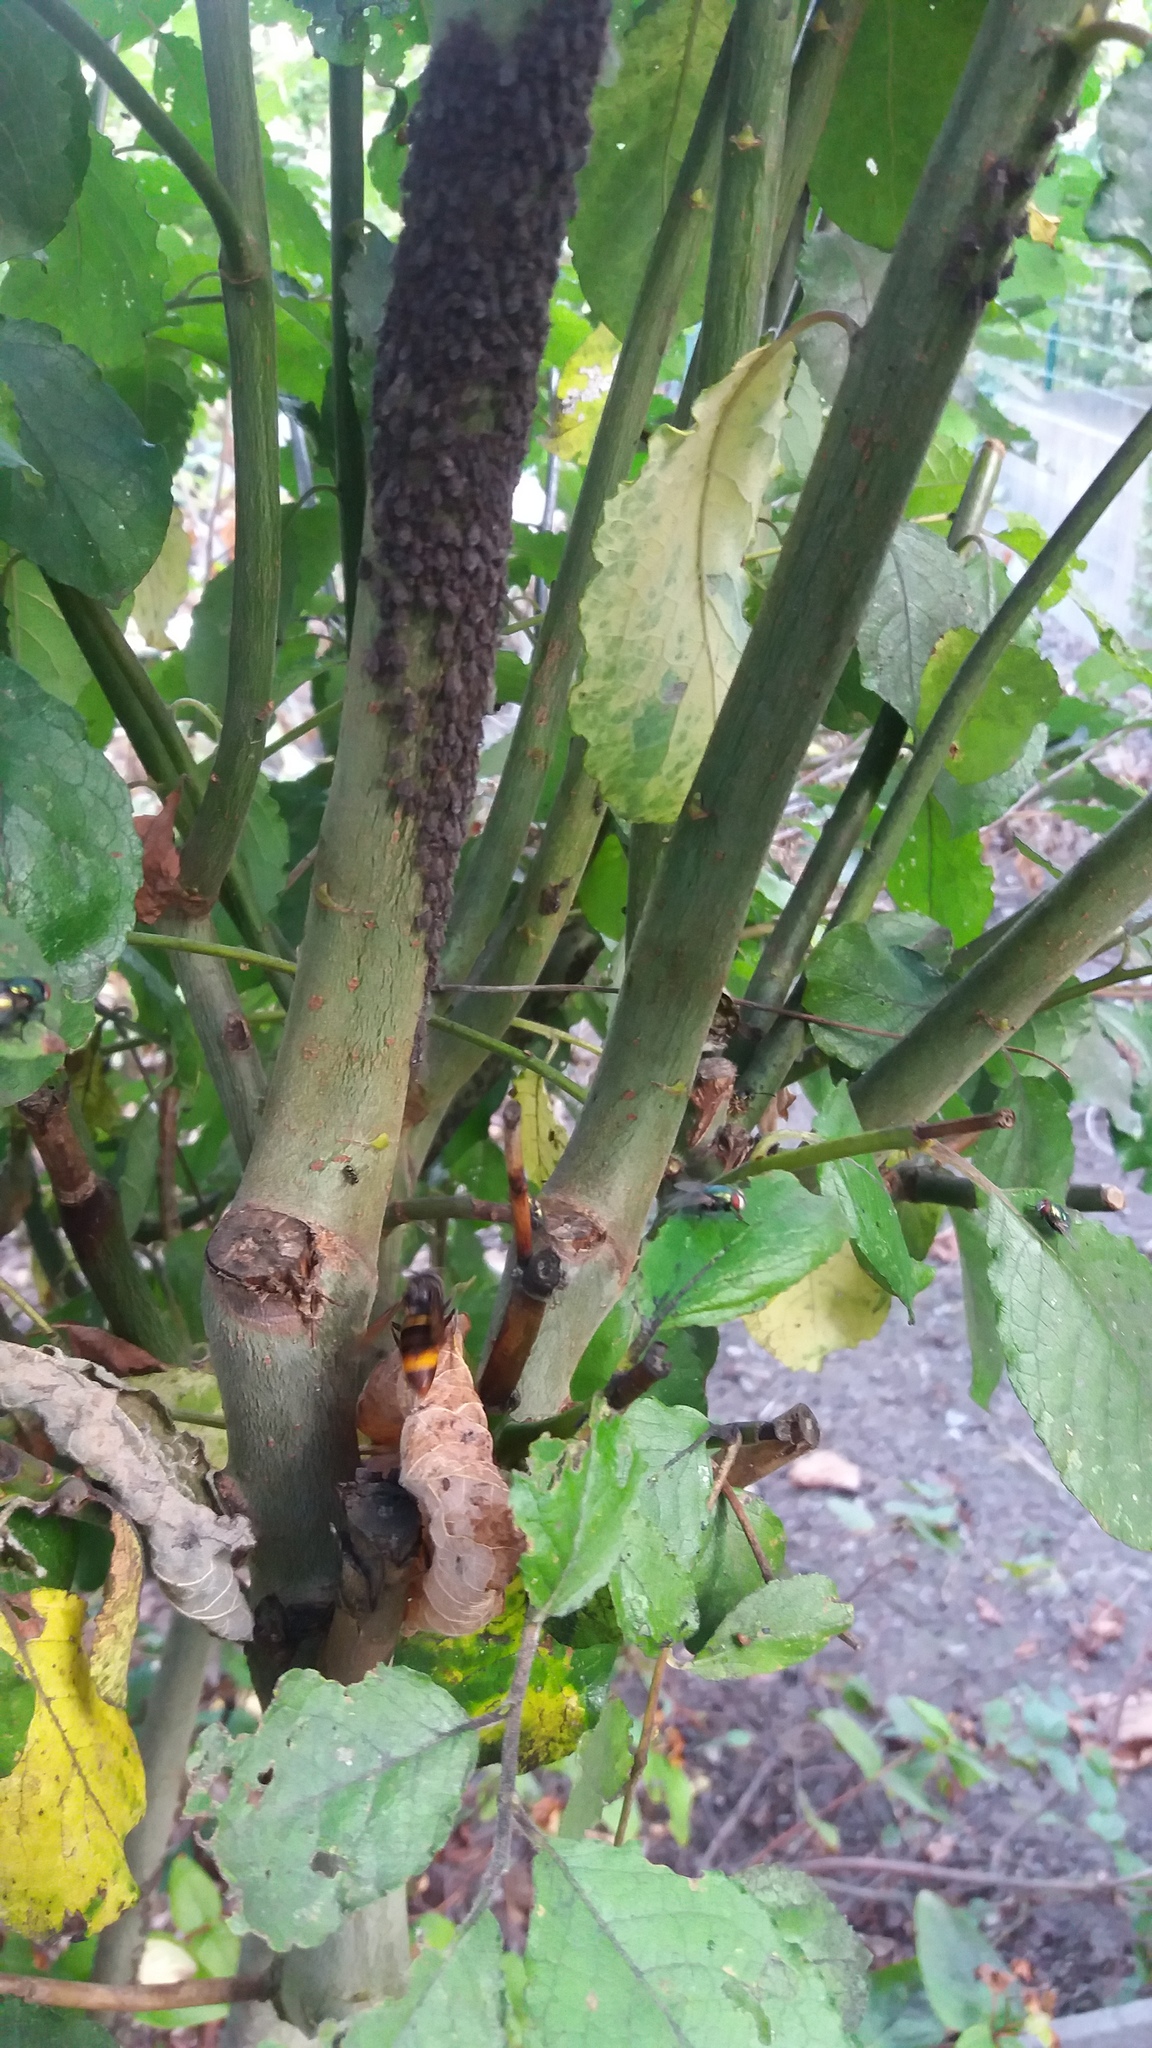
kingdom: Animalia
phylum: Arthropoda
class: Insecta
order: Hymenoptera
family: Vespidae
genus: Vespa
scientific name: Vespa velutina
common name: Asian hornet
